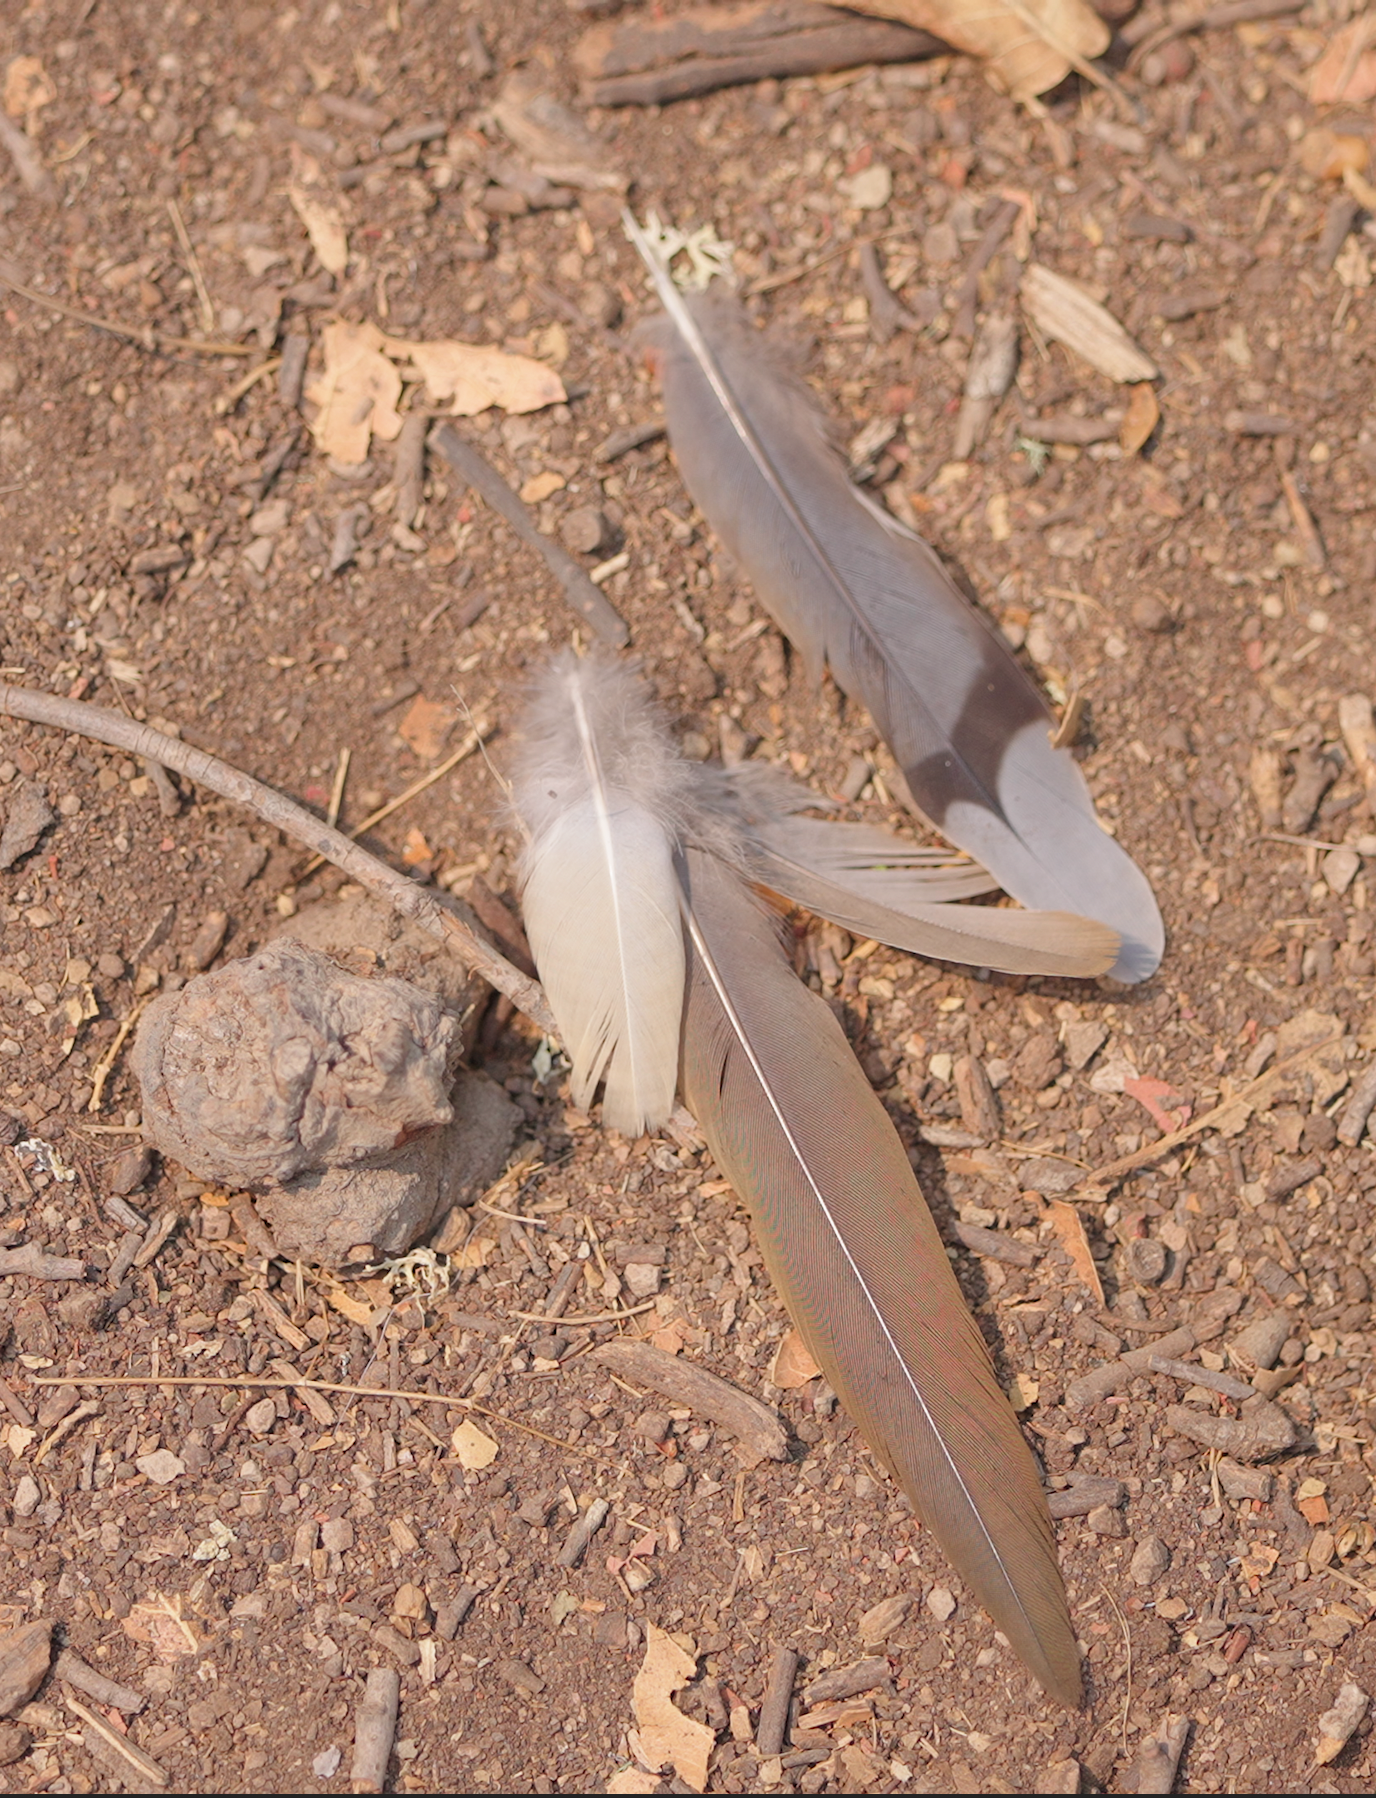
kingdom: Animalia
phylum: Chordata
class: Aves
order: Columbiformes
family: Columbidae
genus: Zenaida
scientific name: Zenaida macroura
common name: Mourning dove
